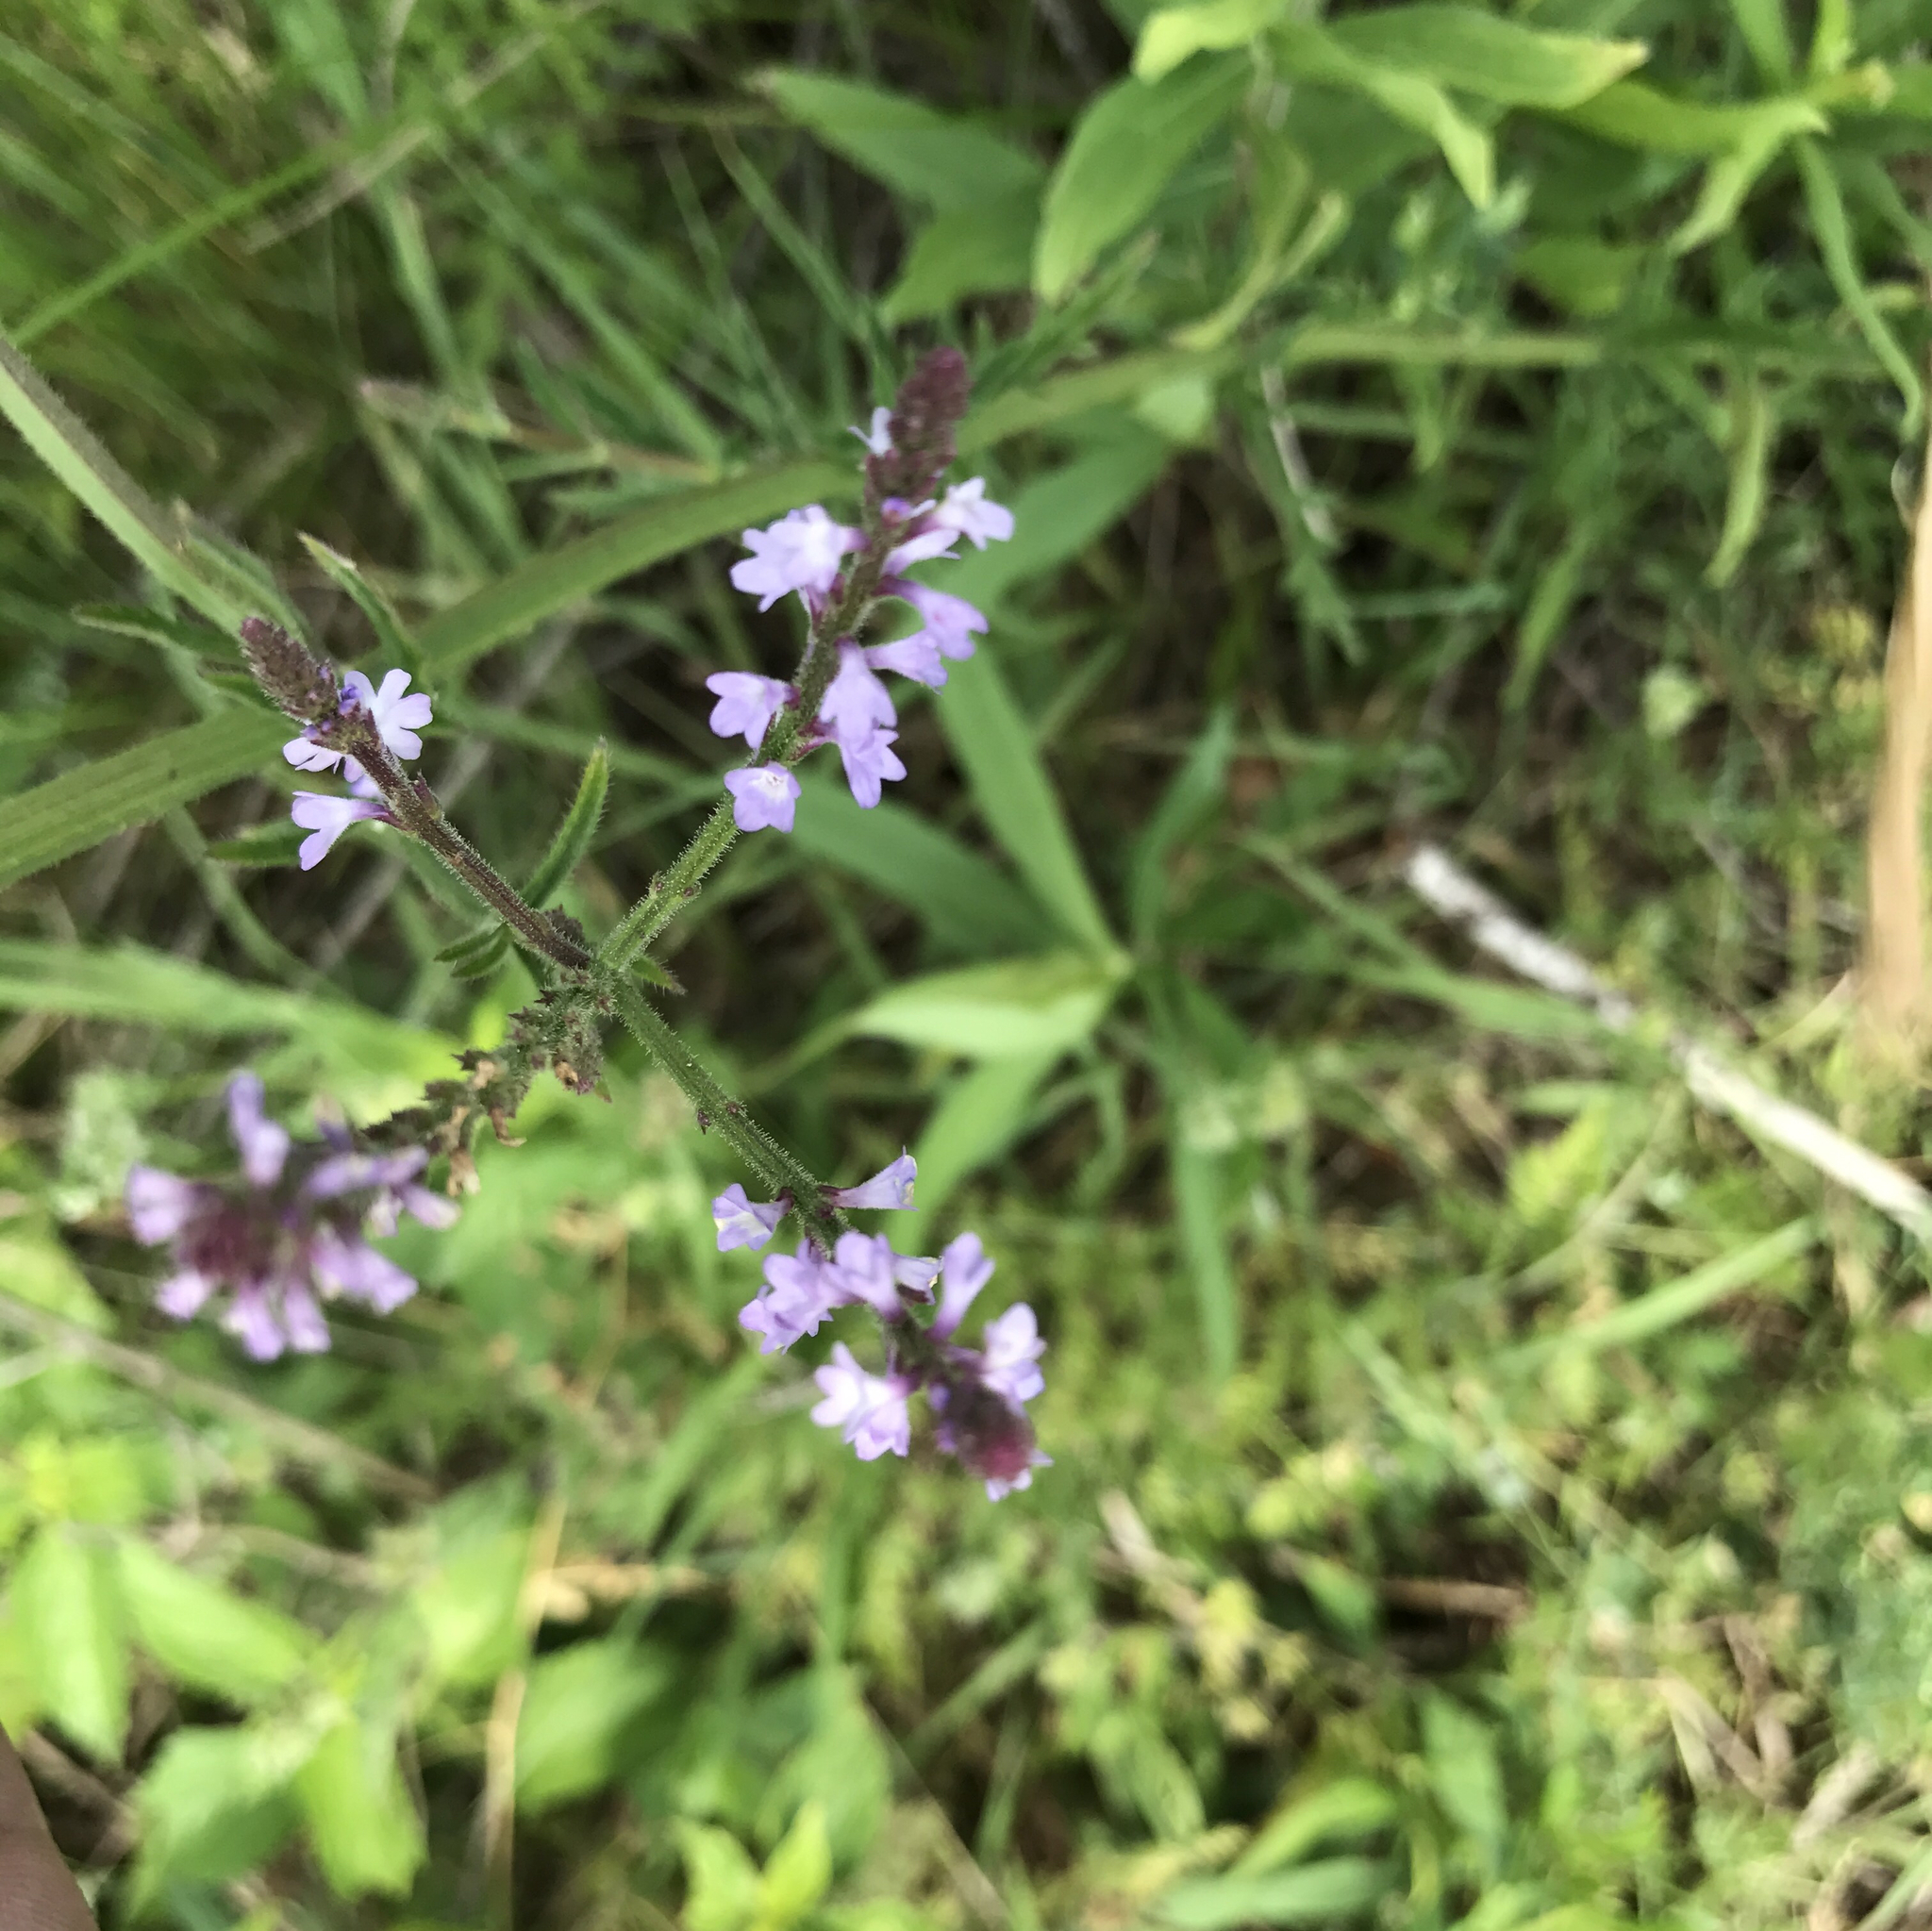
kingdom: Plantae
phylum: Tracheophyta
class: Magnoliopsida
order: Lamiales
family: Verbenaceae
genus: Verbena
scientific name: Verbena xutha
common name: Gulf vervain
